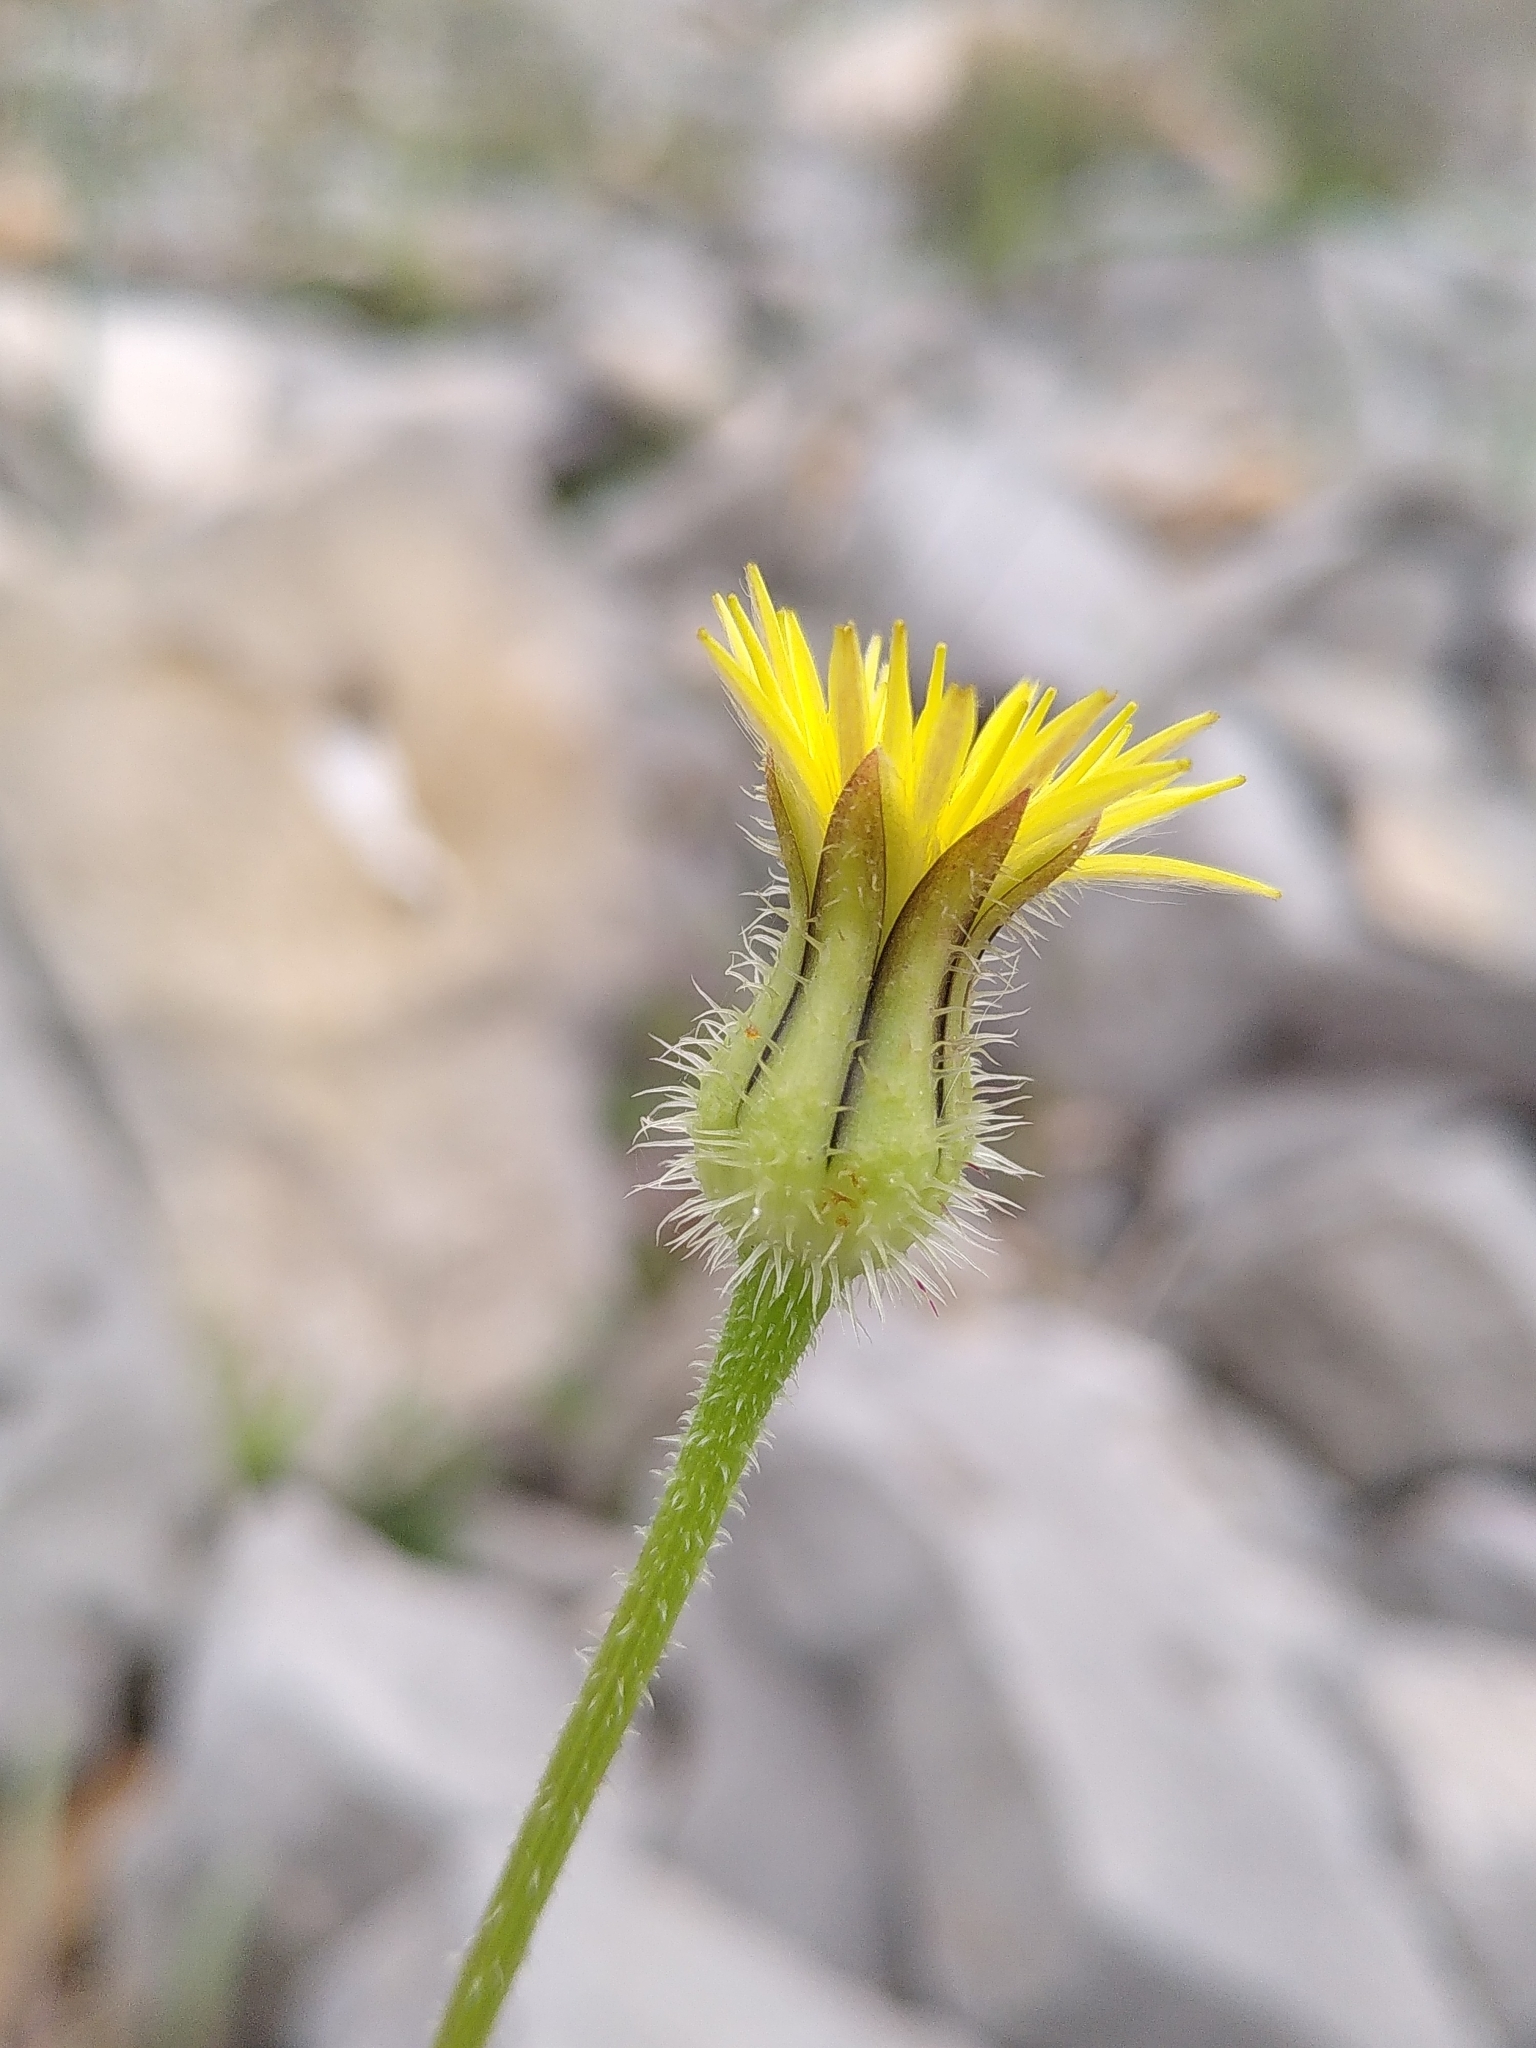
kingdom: Plantae
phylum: Tracheophyta
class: Magnoliopsida
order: Asterales
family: Asteraceae
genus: Urospermum
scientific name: Urospermum picroides
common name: False hawkbit
